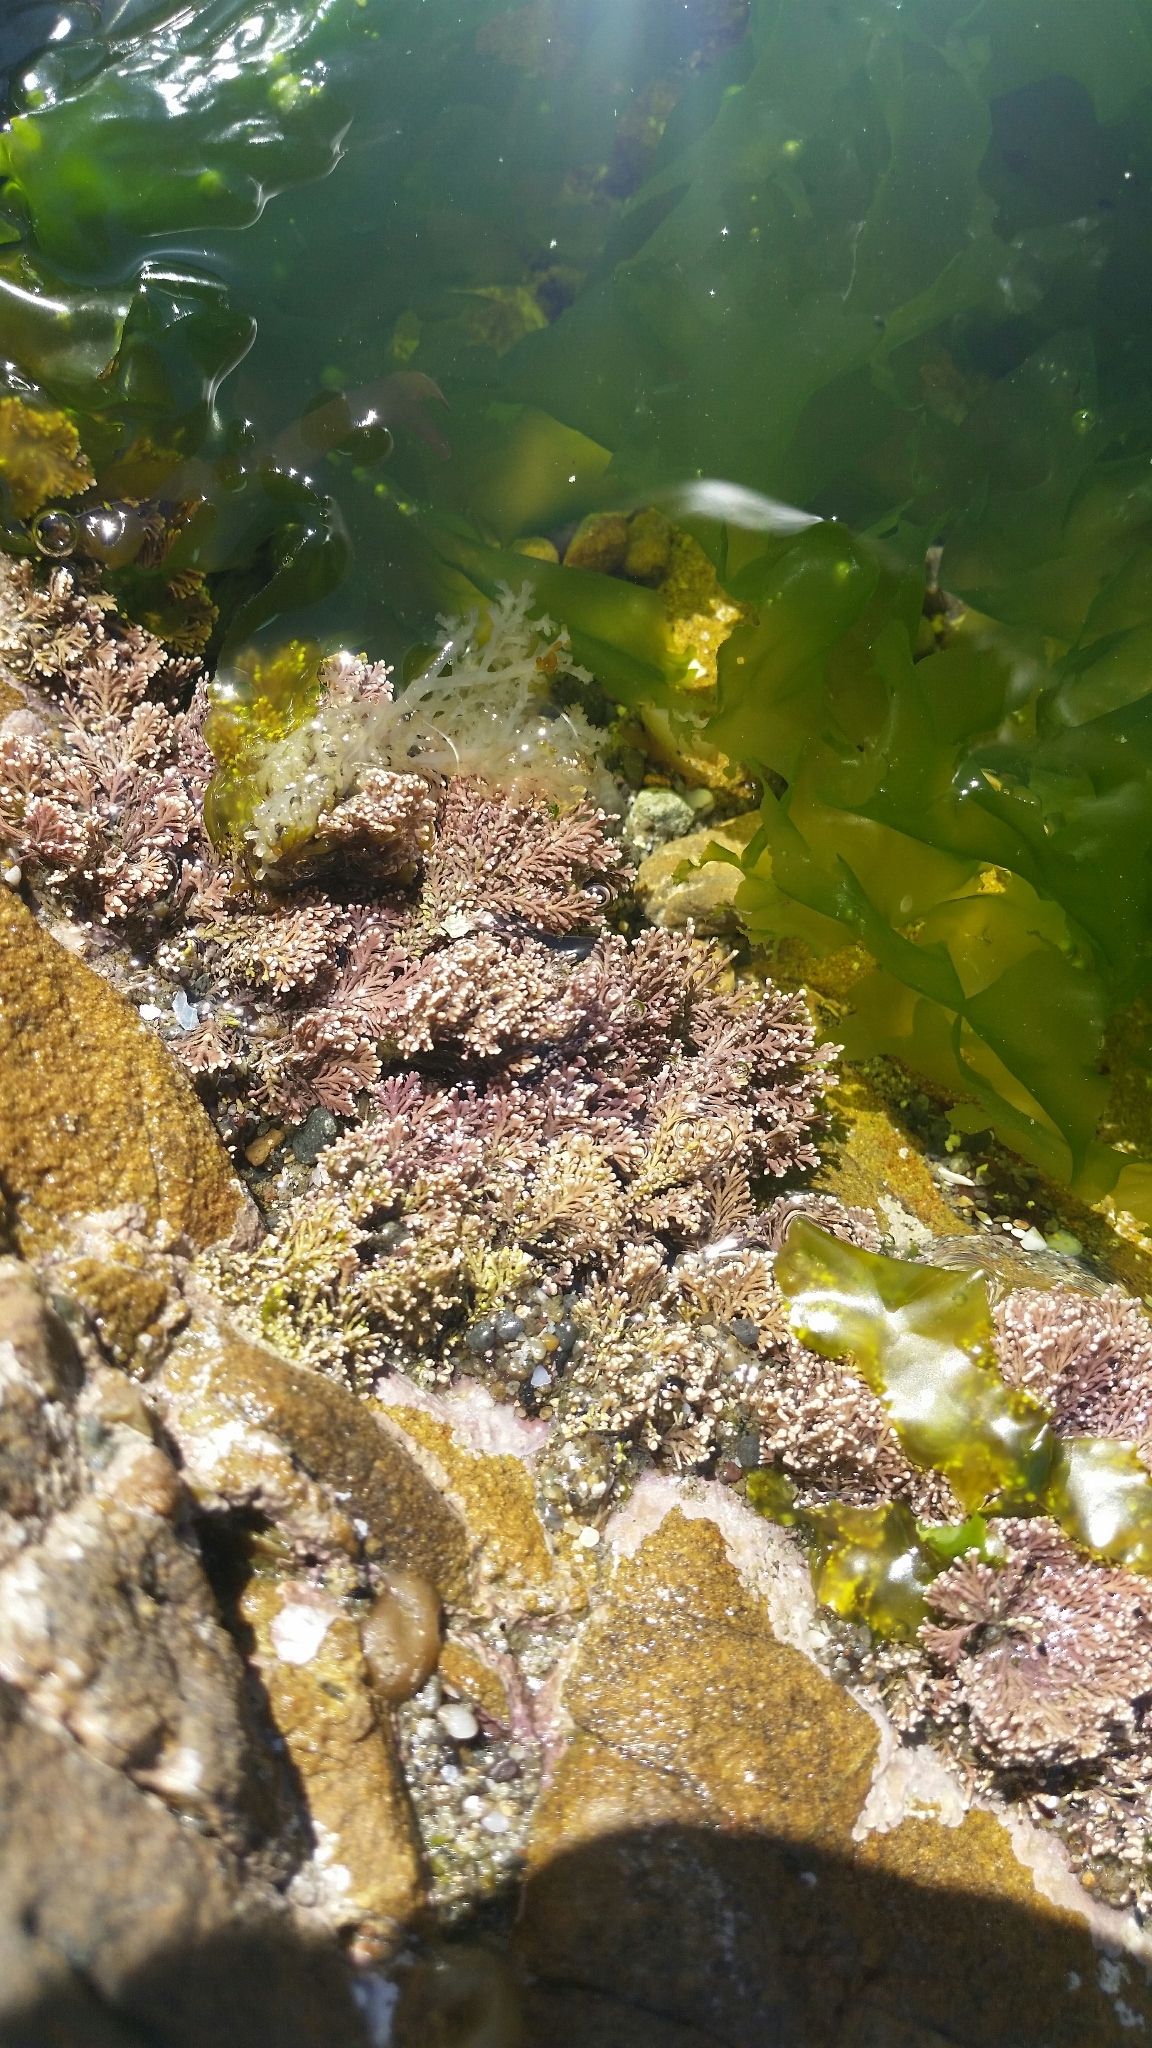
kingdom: Plantae
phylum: Rhodophyta
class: Florideophyceae
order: Corallinales
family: Corallinaceae
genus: Corallina
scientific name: Corallina officinalis
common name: Coral weed
